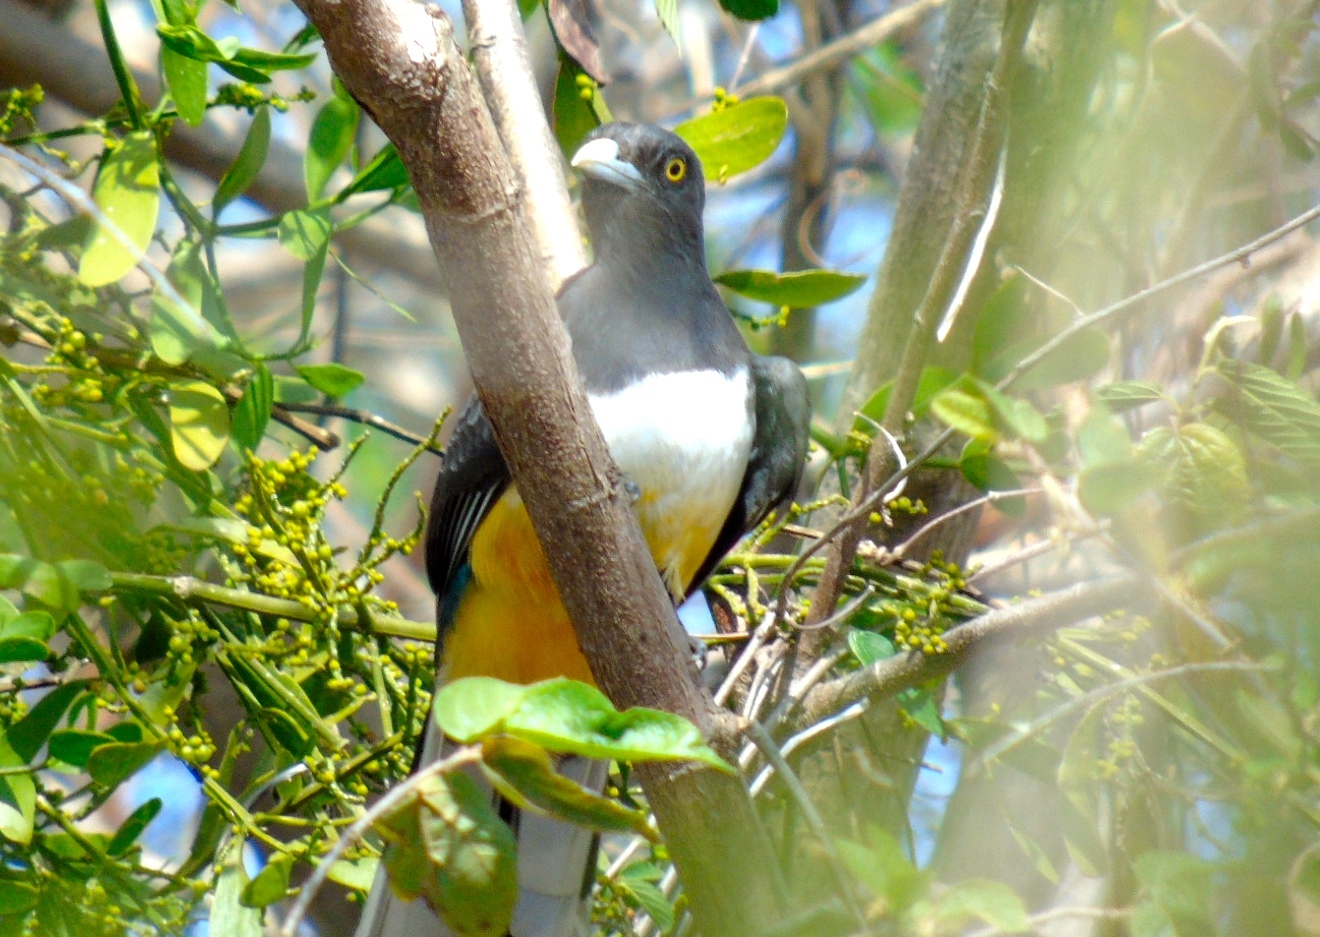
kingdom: Animalia
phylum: Chordata
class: Aves
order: Trogoniformes
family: Trogonidae
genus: Trogon
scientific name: Trogon citreolus
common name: Citreoline trogon
